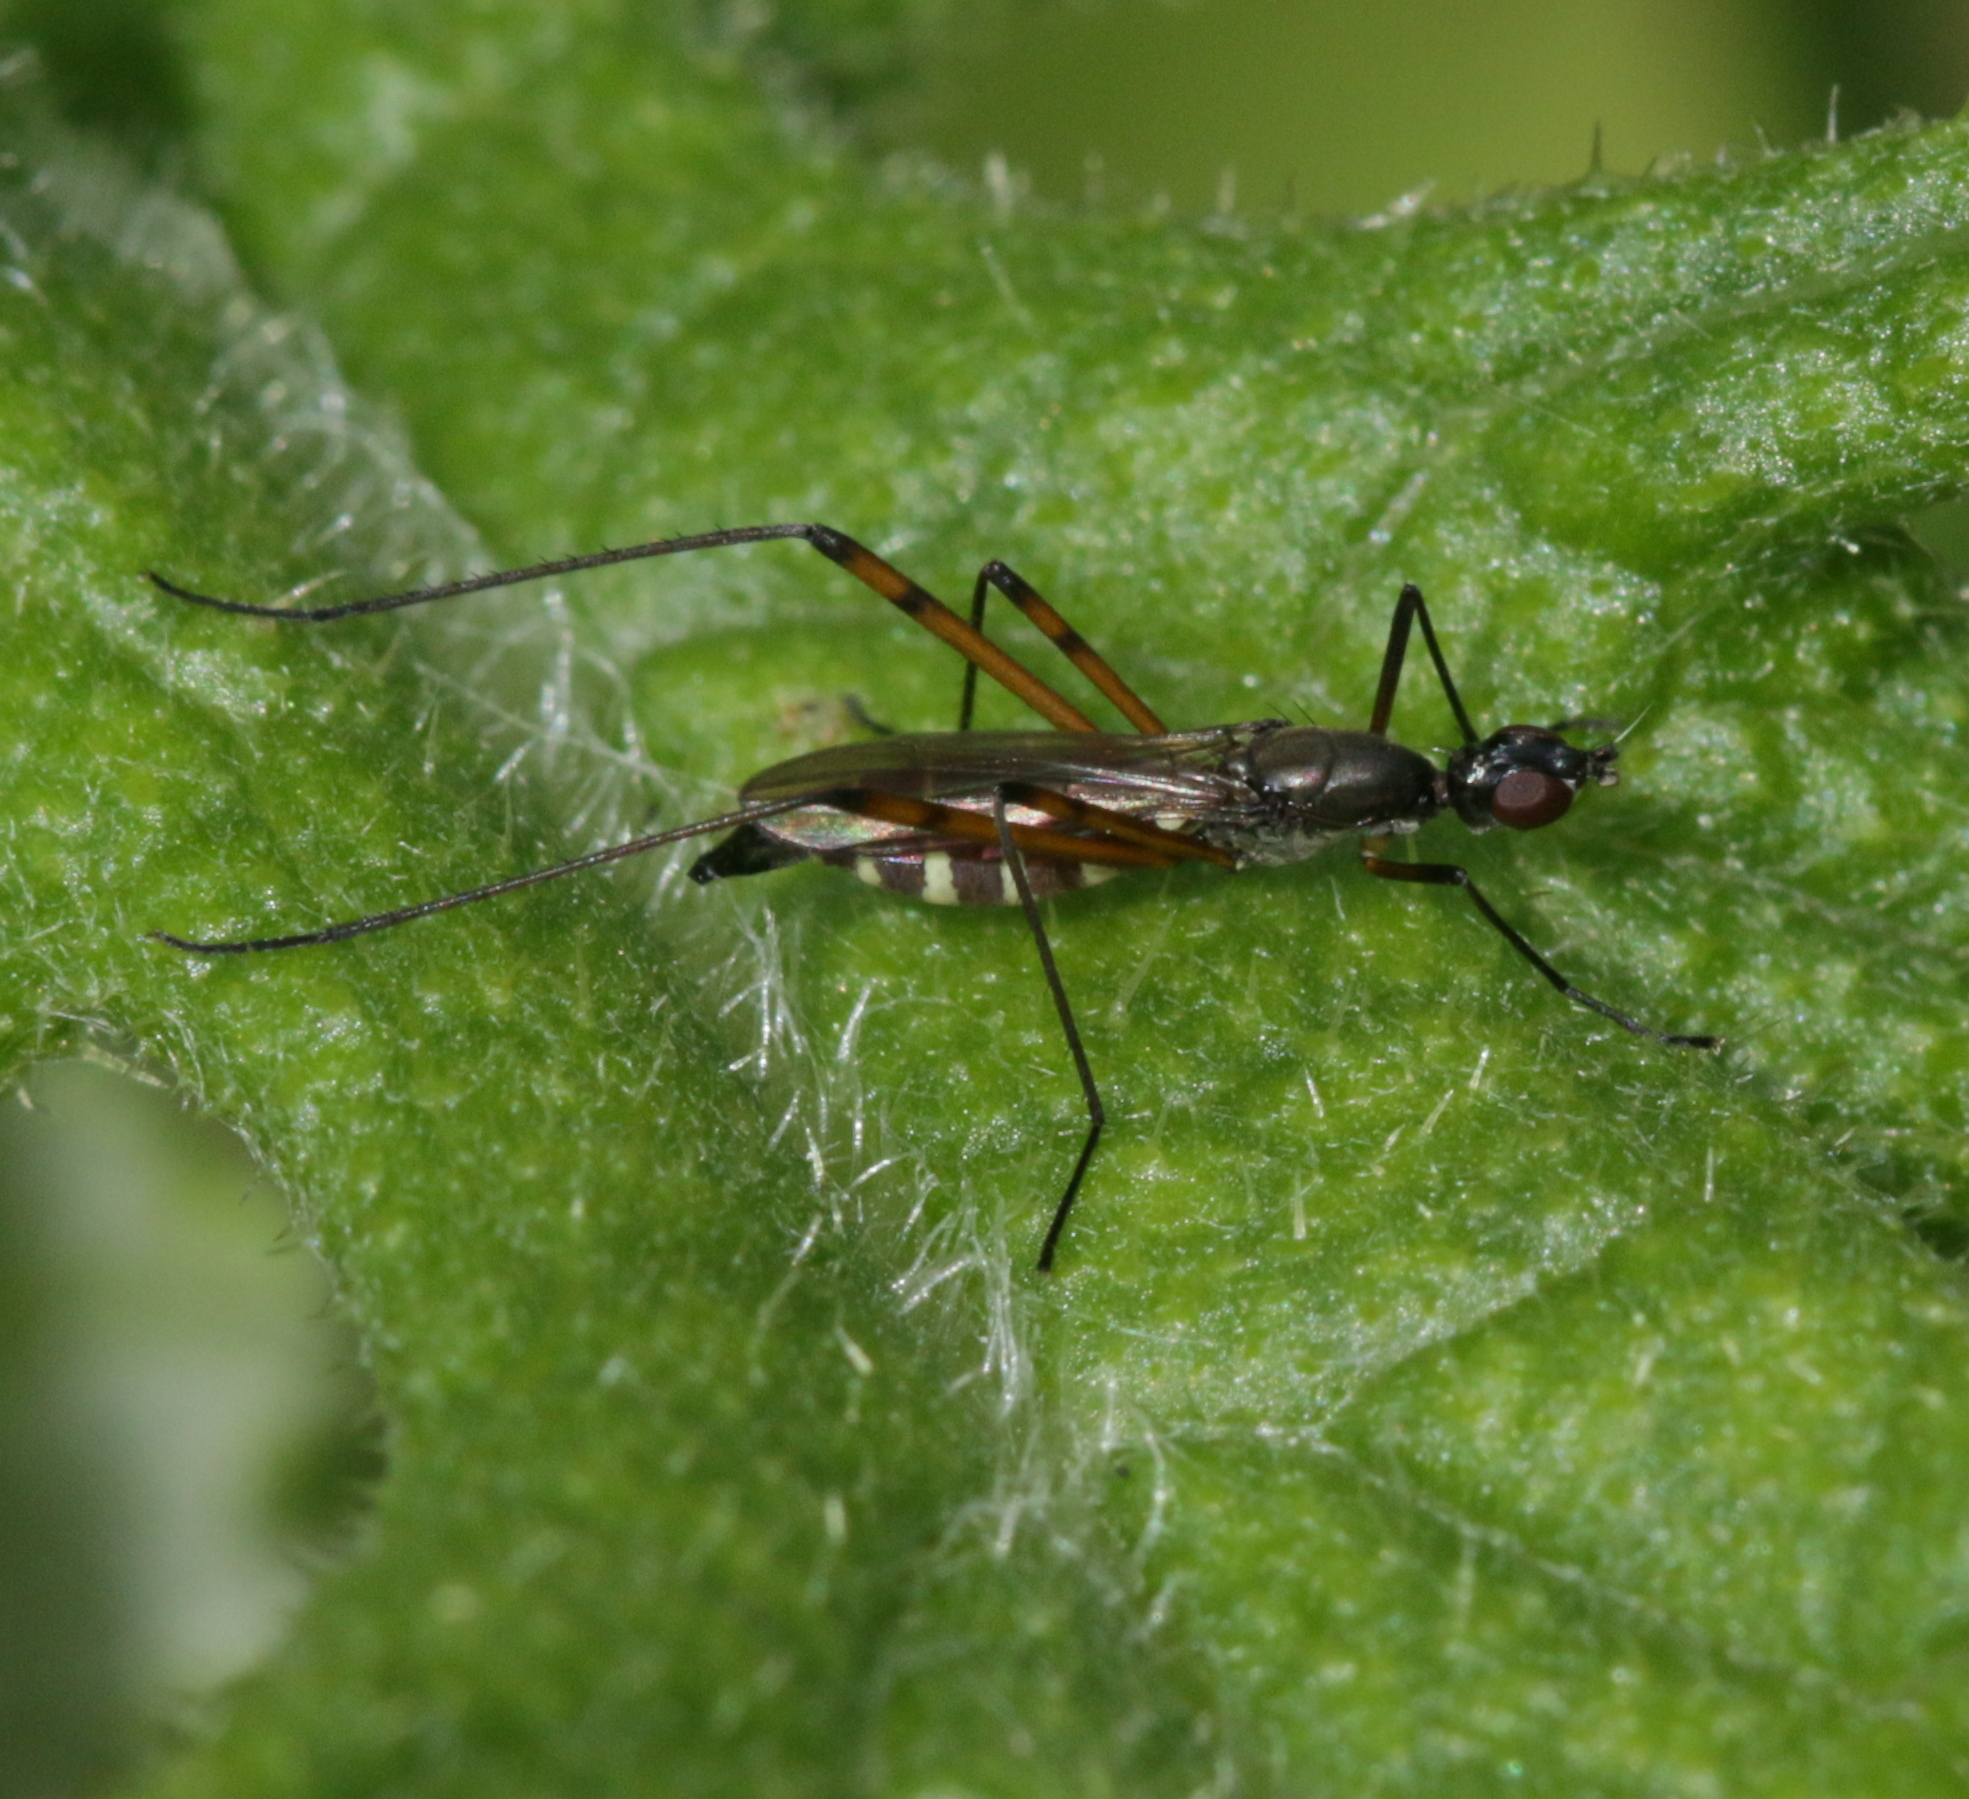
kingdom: Animalia
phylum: Arthropoda
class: Insecta
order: Diptera
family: Micropezidae
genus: Micropeza
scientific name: Micropeza corrigiolata
